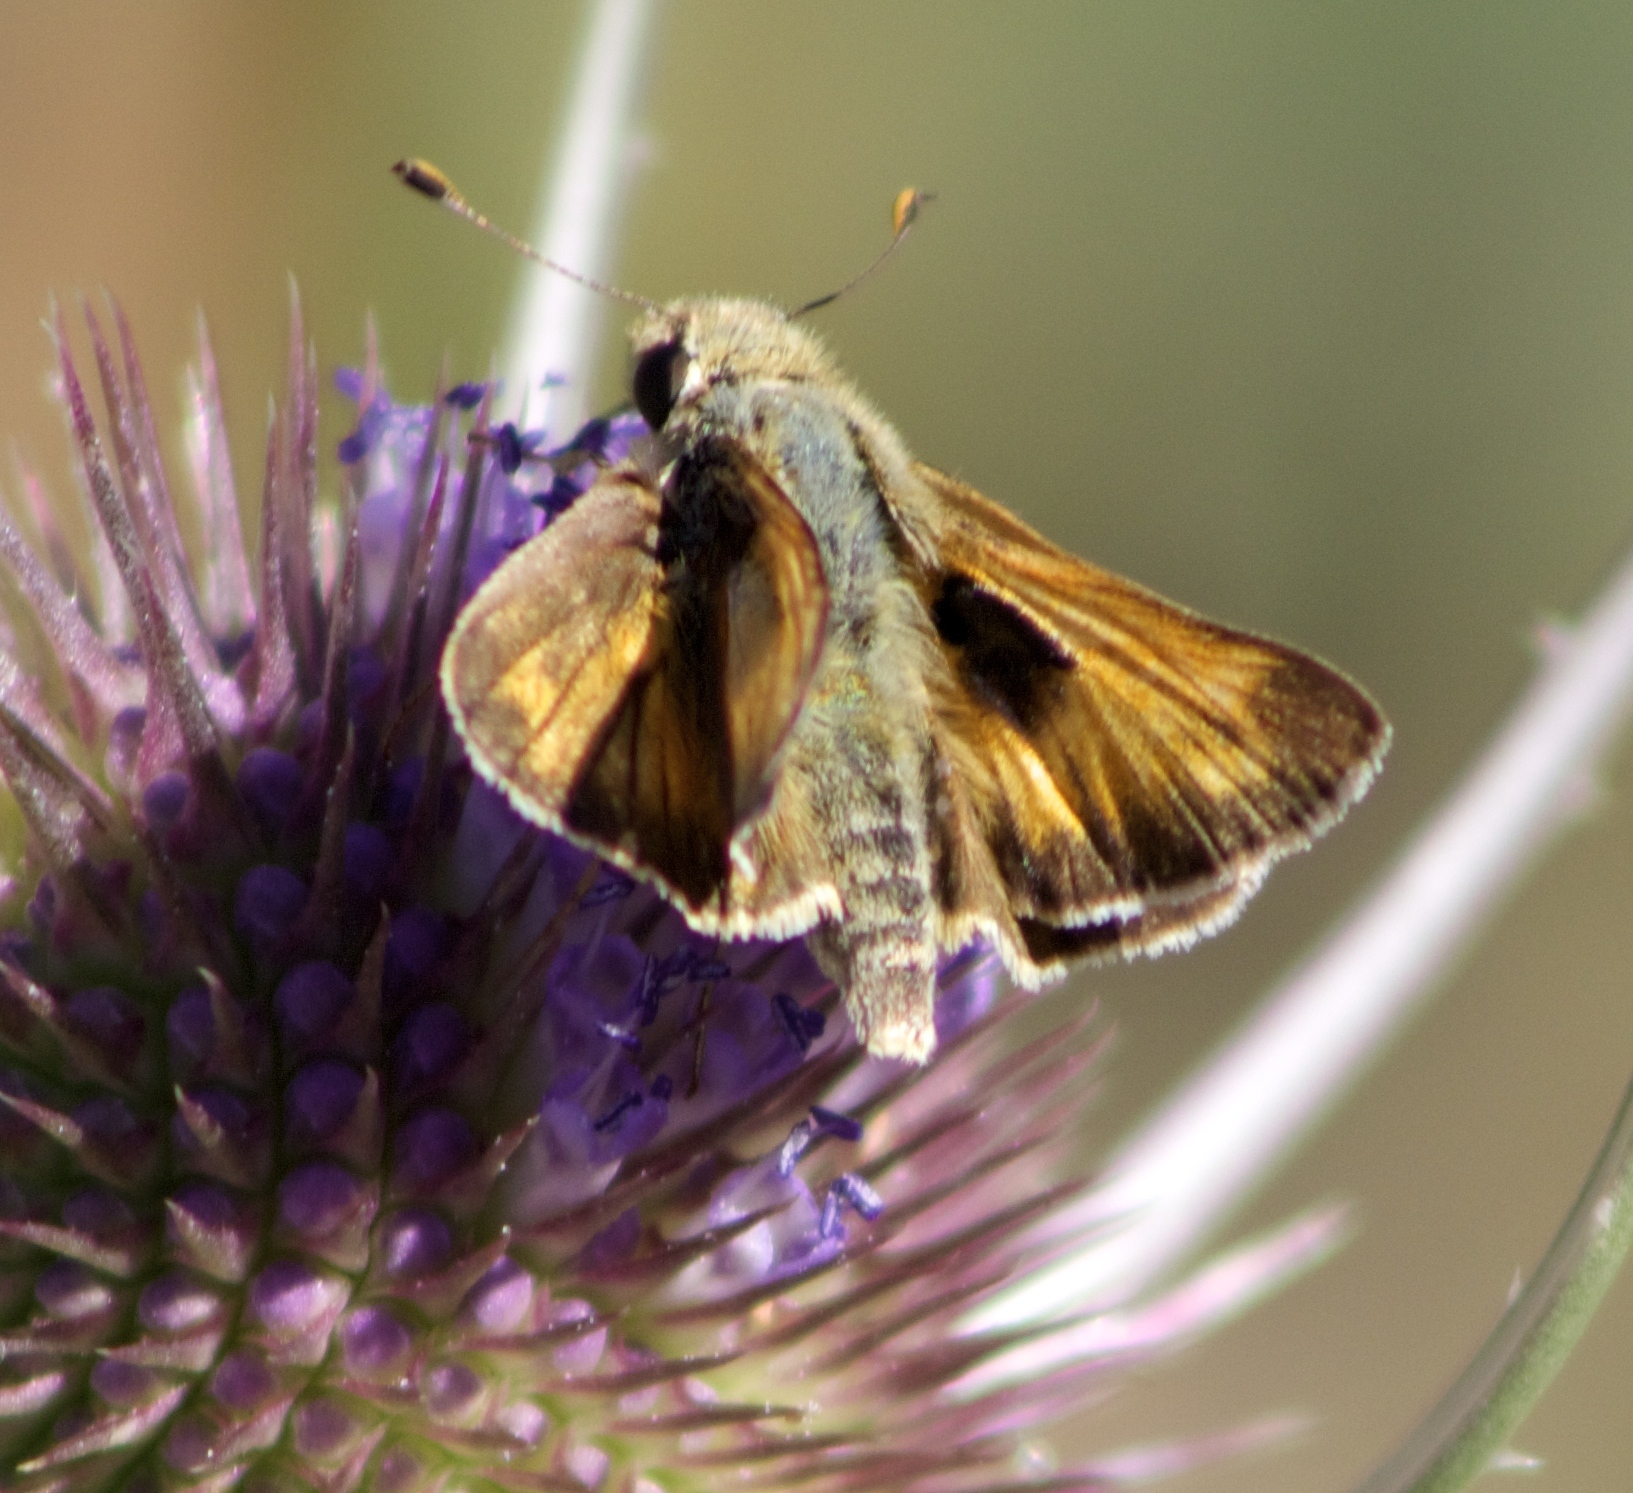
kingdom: Animalia
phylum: Arthropoda
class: Insecta
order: Lepidoptera
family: Hesperiidae
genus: Atalopedes
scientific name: Atalopedes campestris
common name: Sachem
